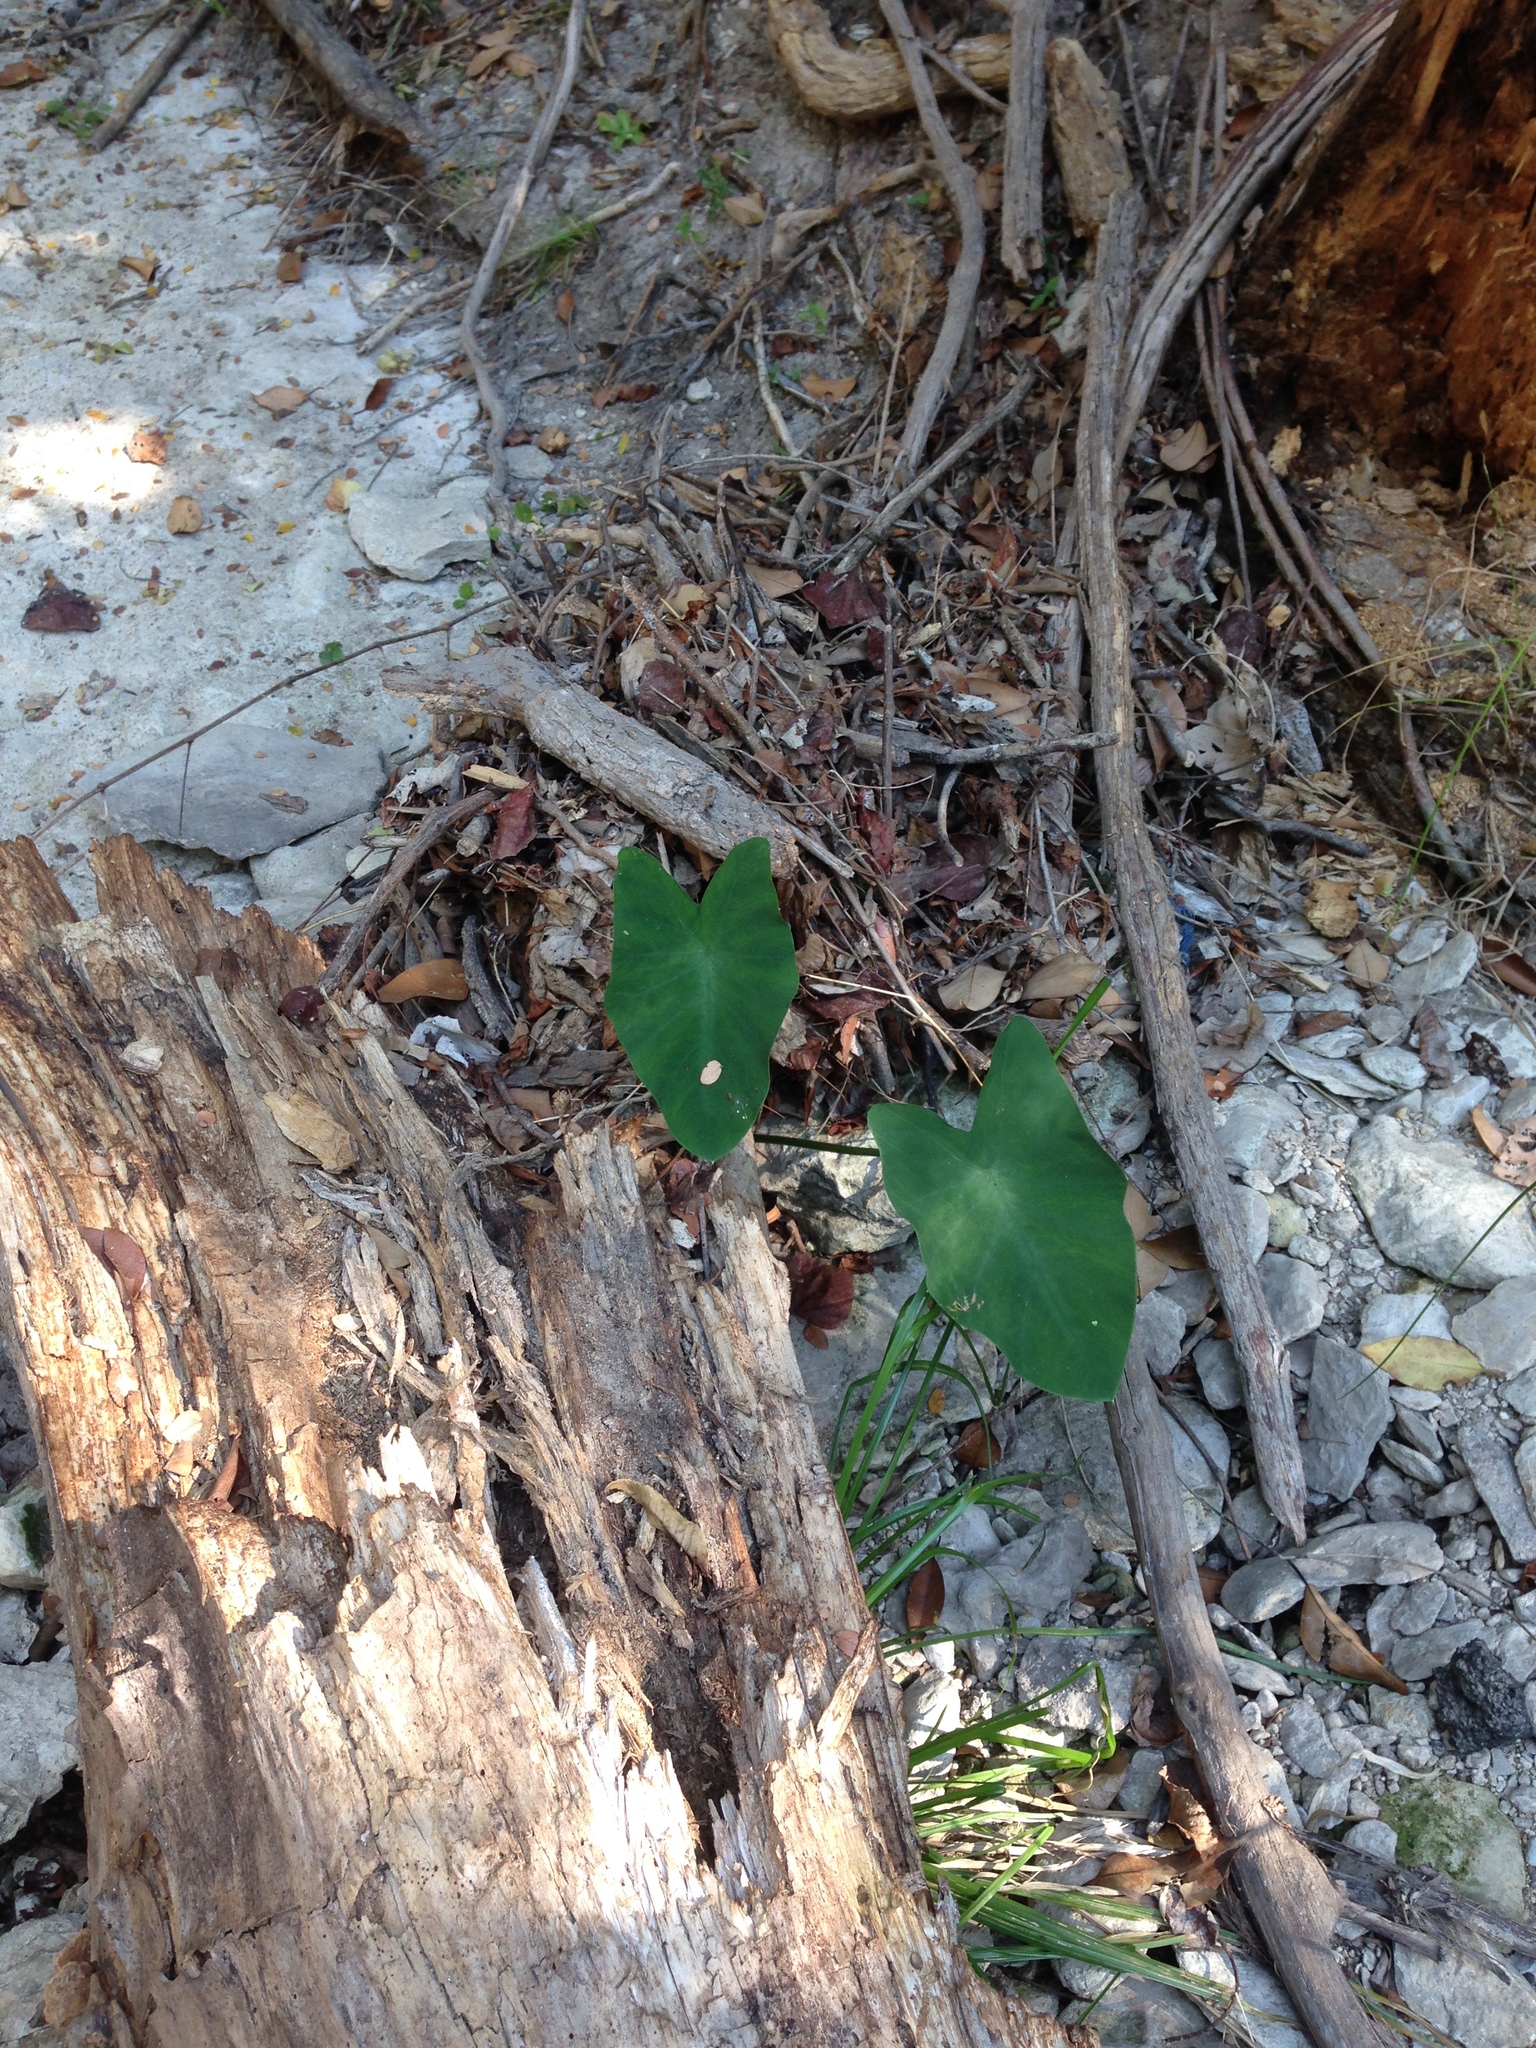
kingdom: Plantae
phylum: Tracheophyta
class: Liliopsida
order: Alismatales
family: Araceae
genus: Colocasia
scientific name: Colocasia esculenta
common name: Taro
